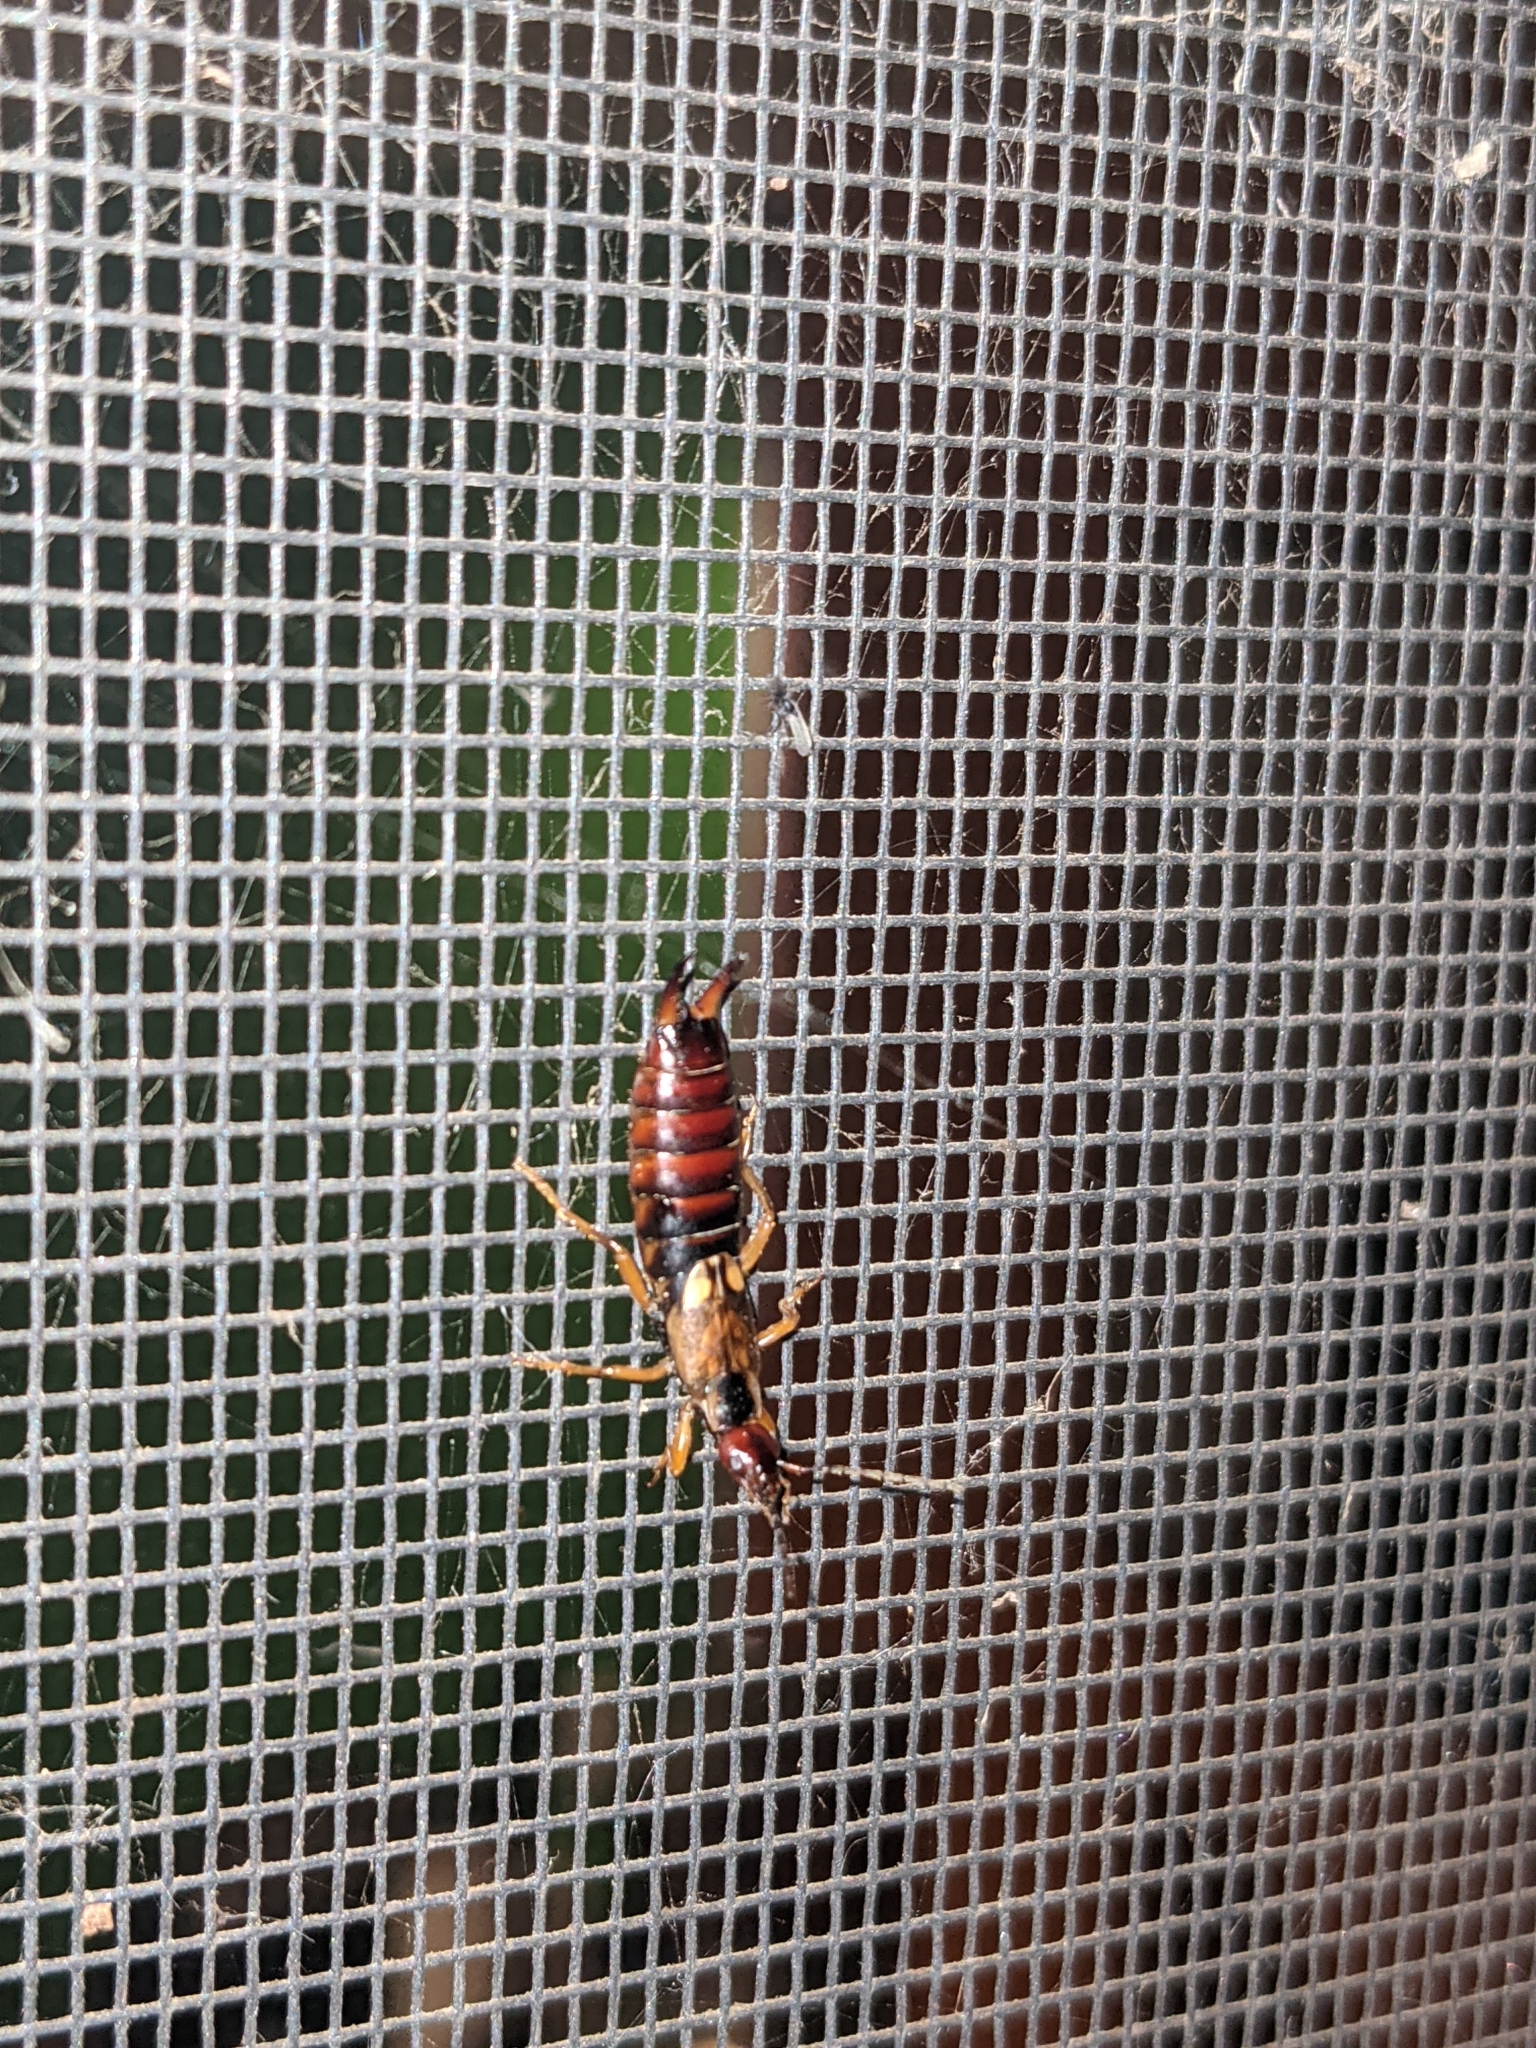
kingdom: Animalia
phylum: Arthropoda
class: Insecta
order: Dermaptera
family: Forficulidae
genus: Forficula
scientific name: Forficula
